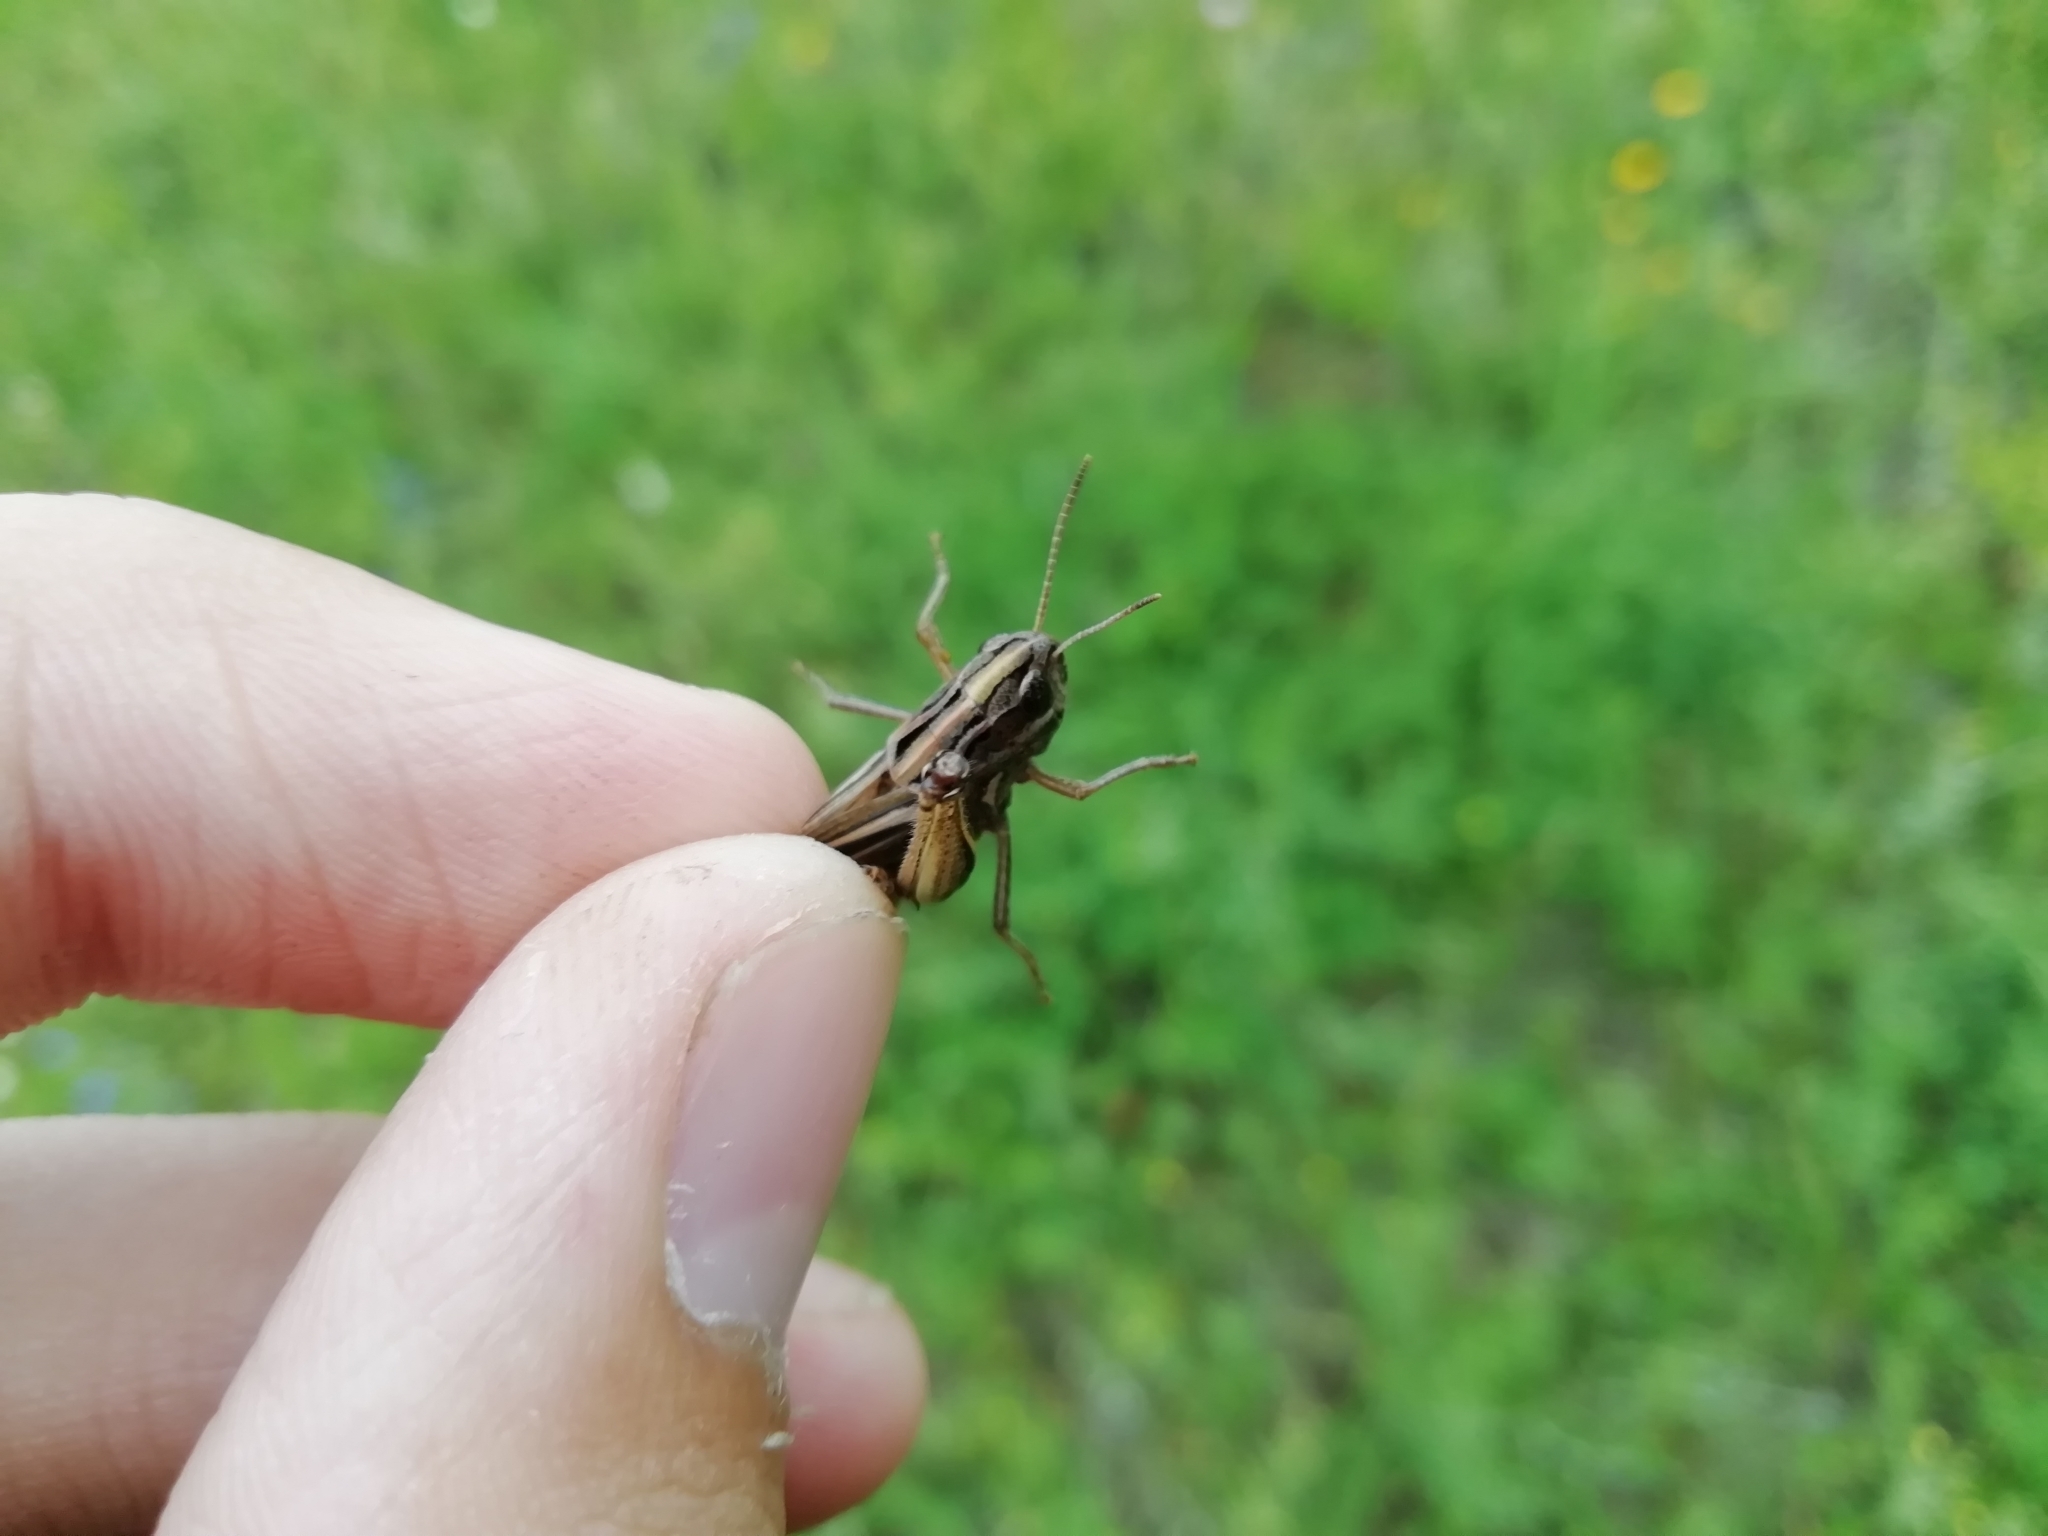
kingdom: Animalia
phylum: Arthropoda
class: Insecta
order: Orthoptera
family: Acrididae
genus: Stenobothrus
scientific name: Stenobothrus lineatus
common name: Stripe-winged grasshopper
